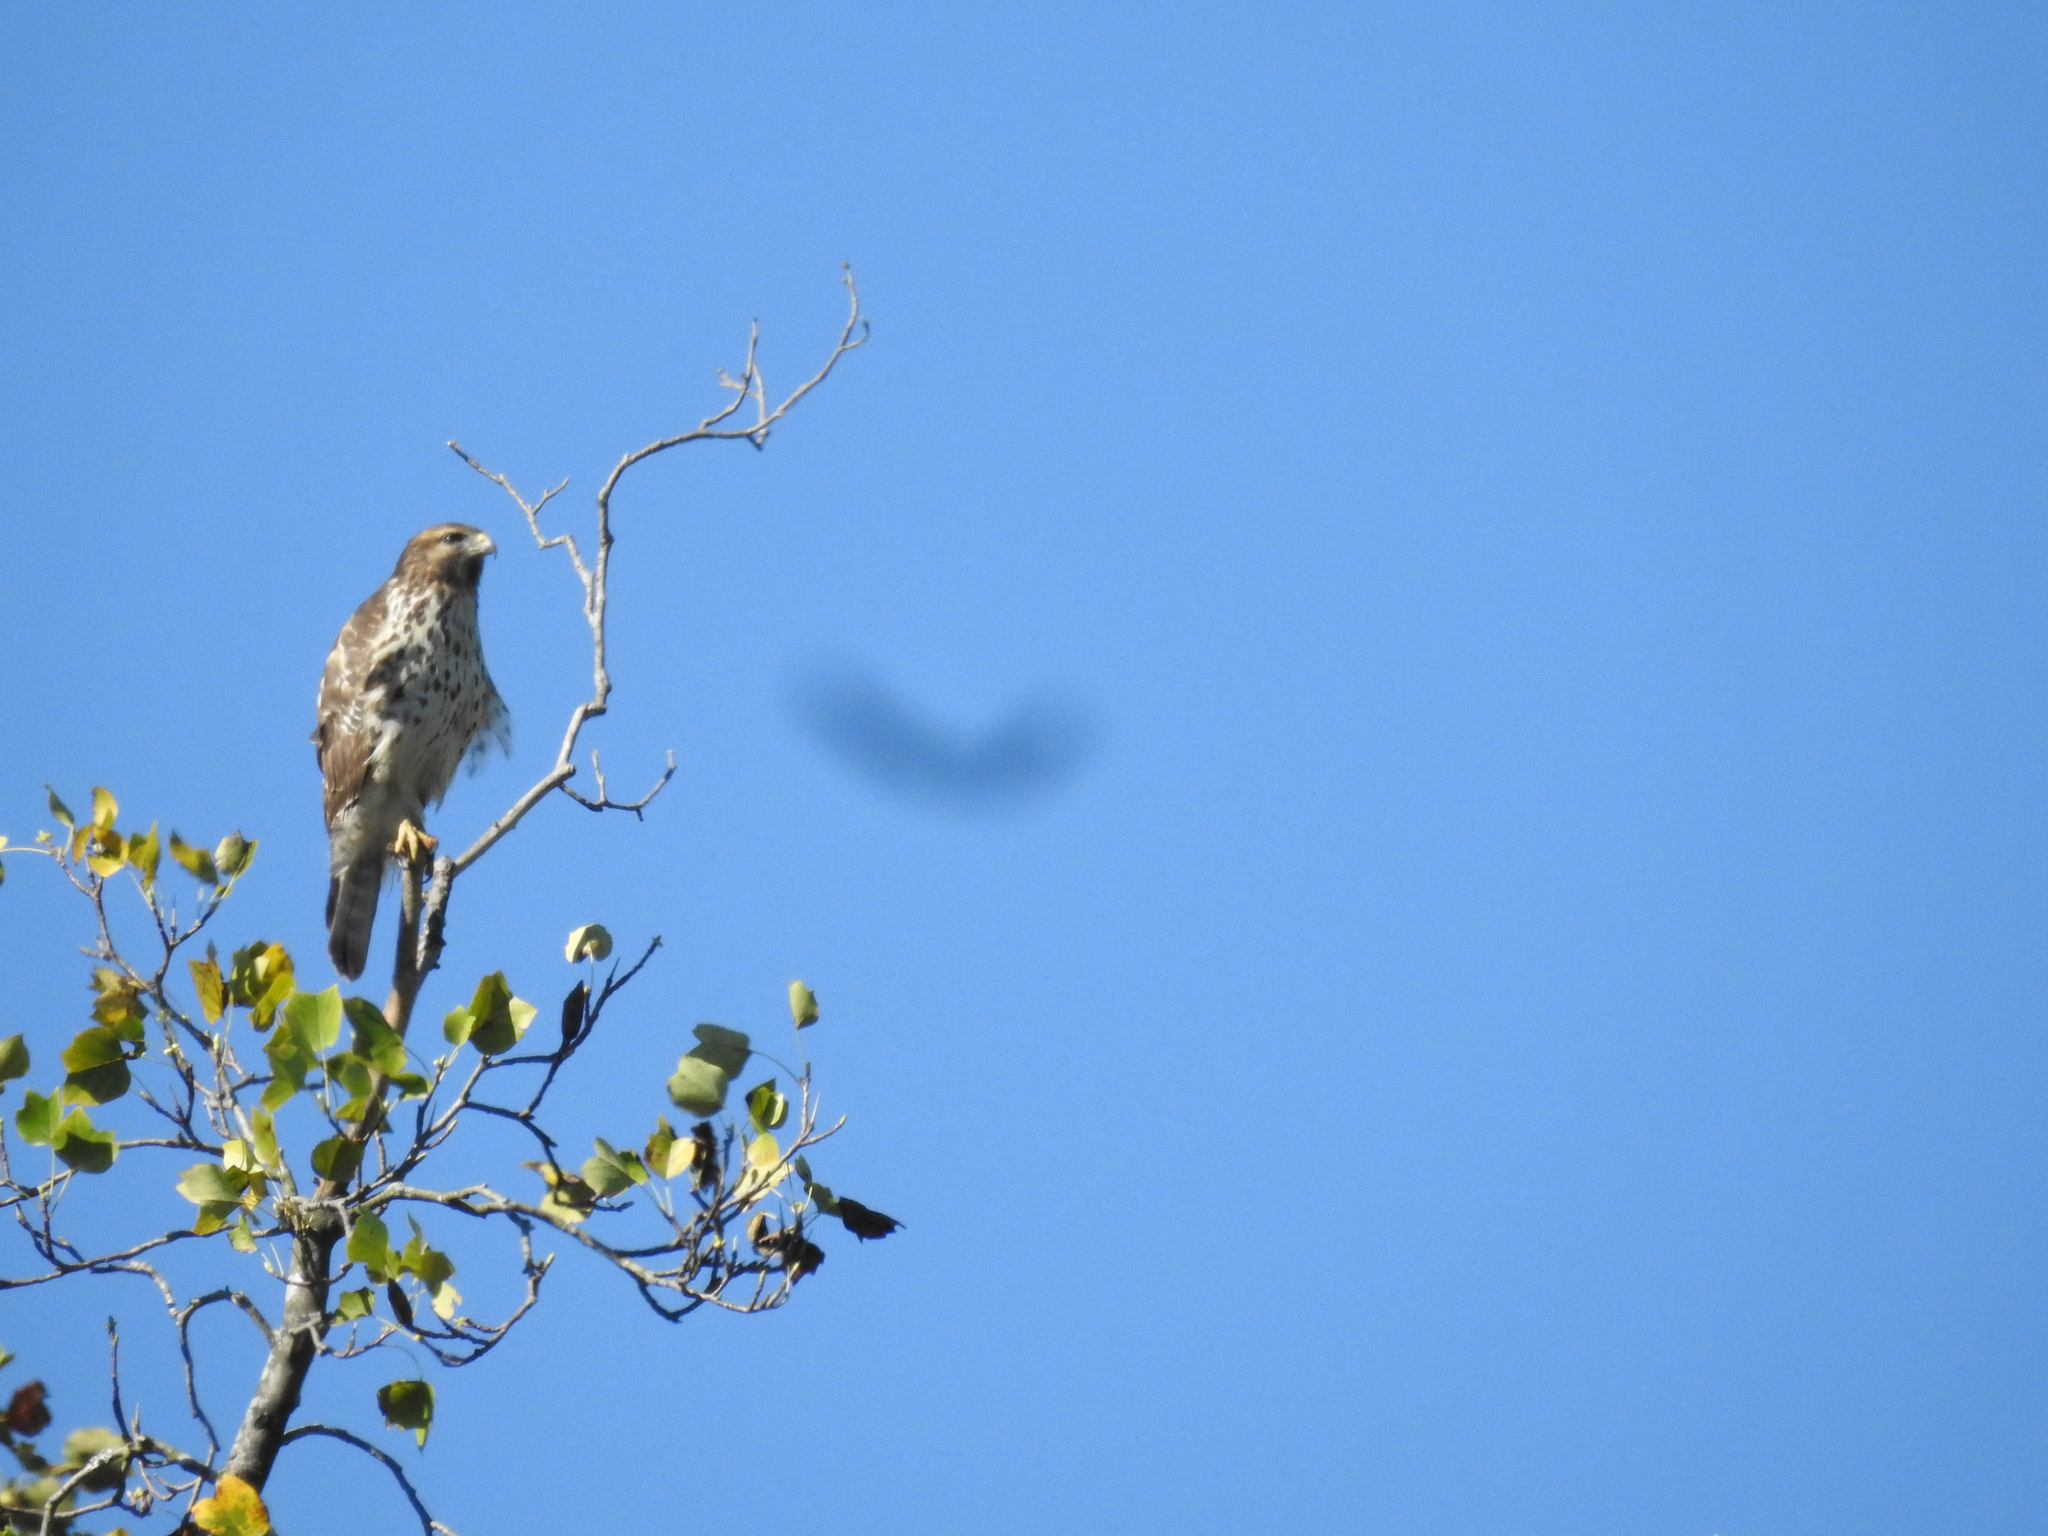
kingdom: Animalia
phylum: Chordata
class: Aves
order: Accipitriformes
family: Accipitridae
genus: Buteo
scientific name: Buteo lineatus
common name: Red-shouldered hawk
